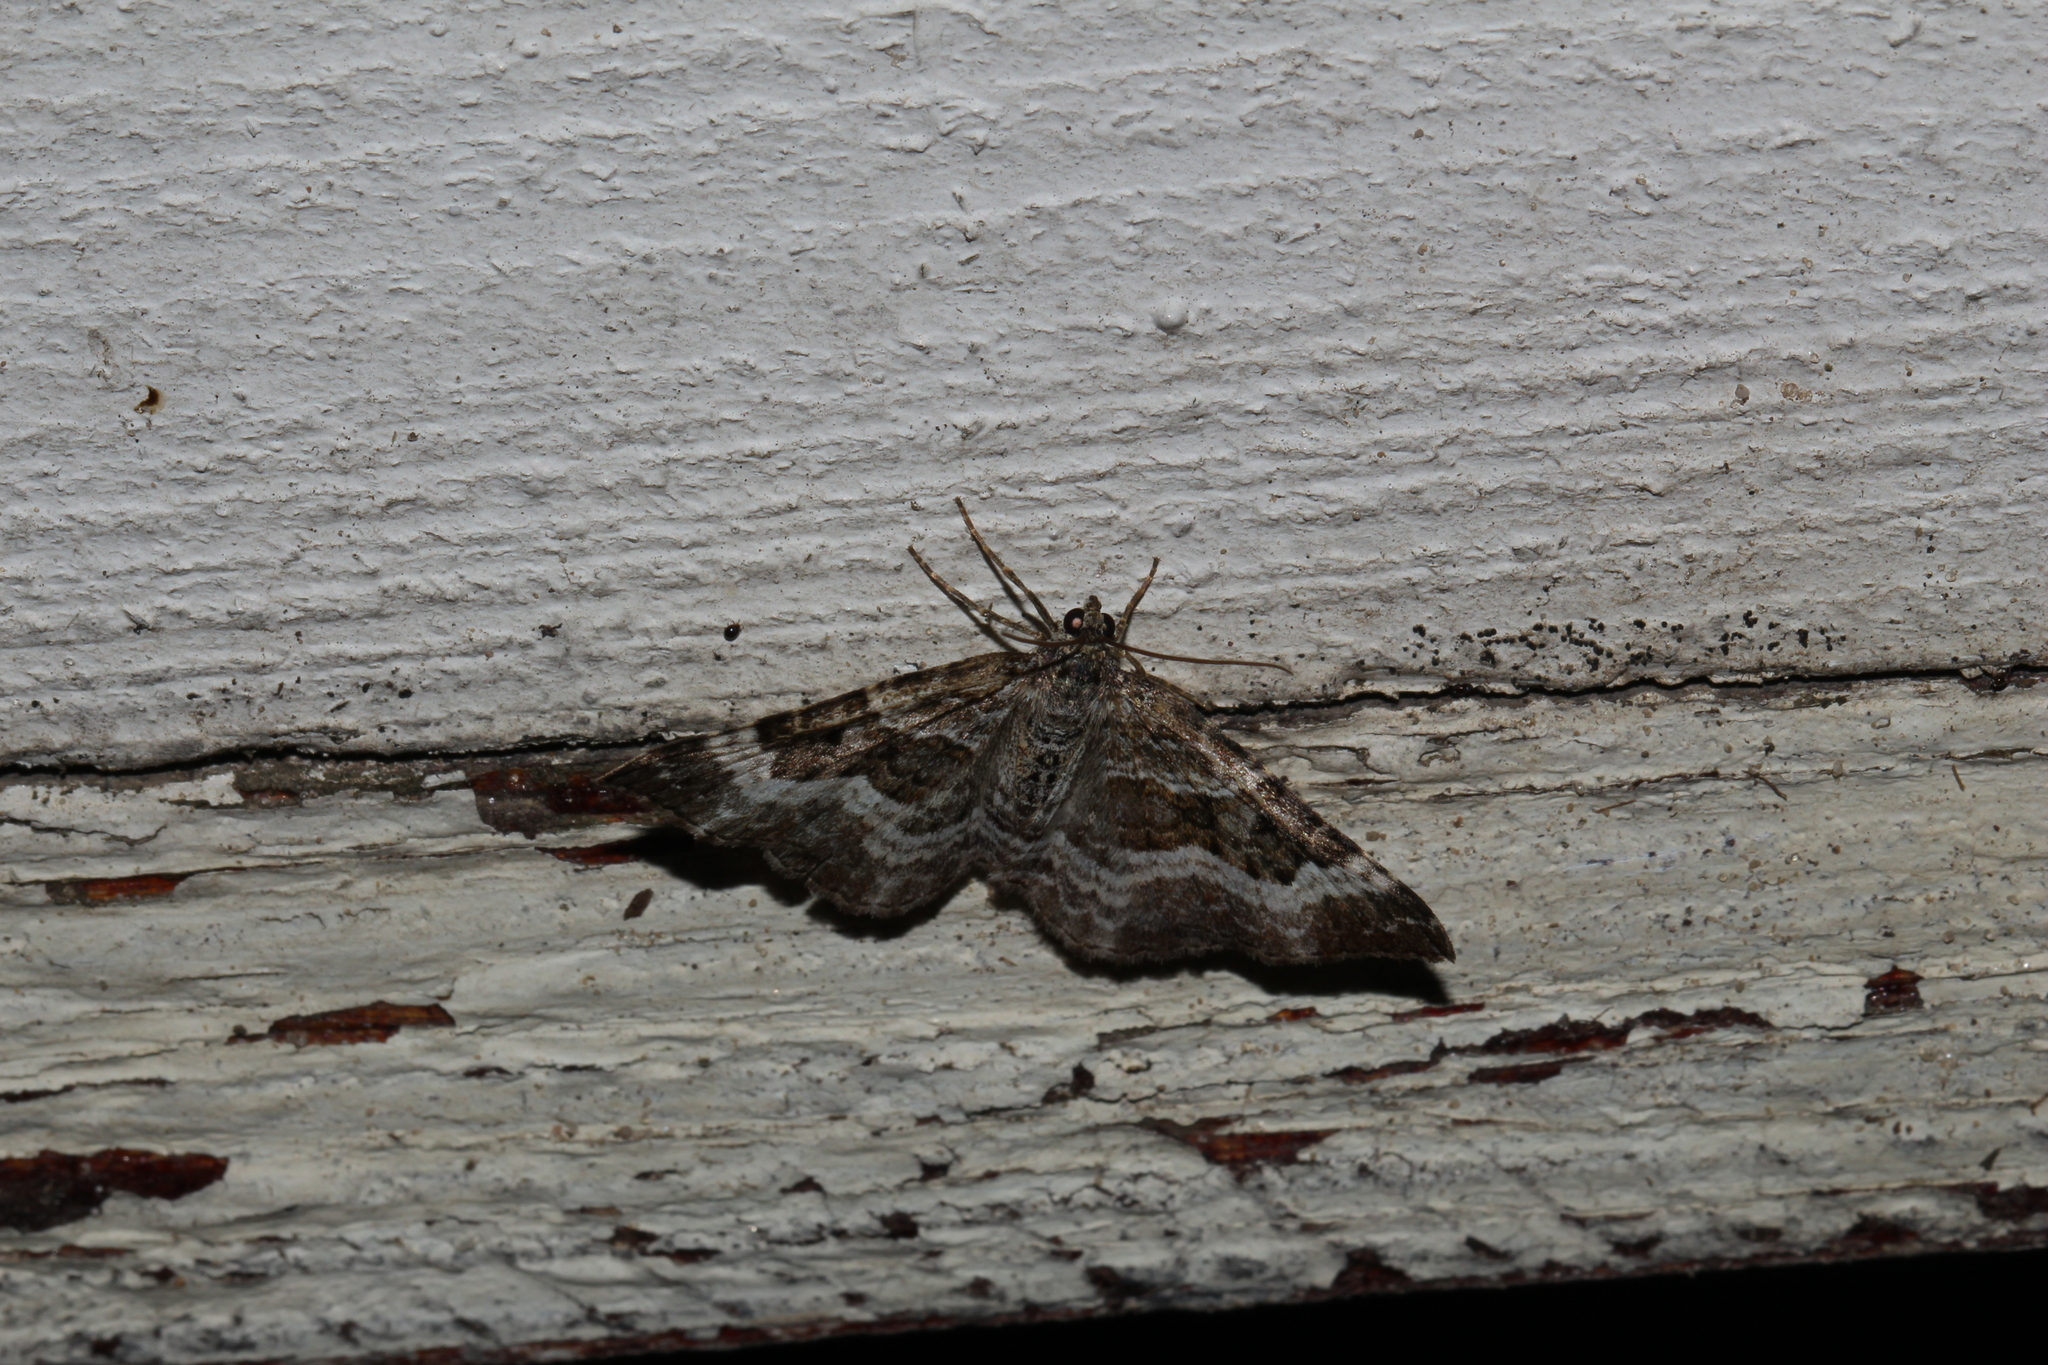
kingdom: Animalia
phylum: Arthropoda
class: Insecta
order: Lepidoptera
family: Geometridae
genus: Epirrhoe
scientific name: Epirrhoe alternata
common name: Common carpet
